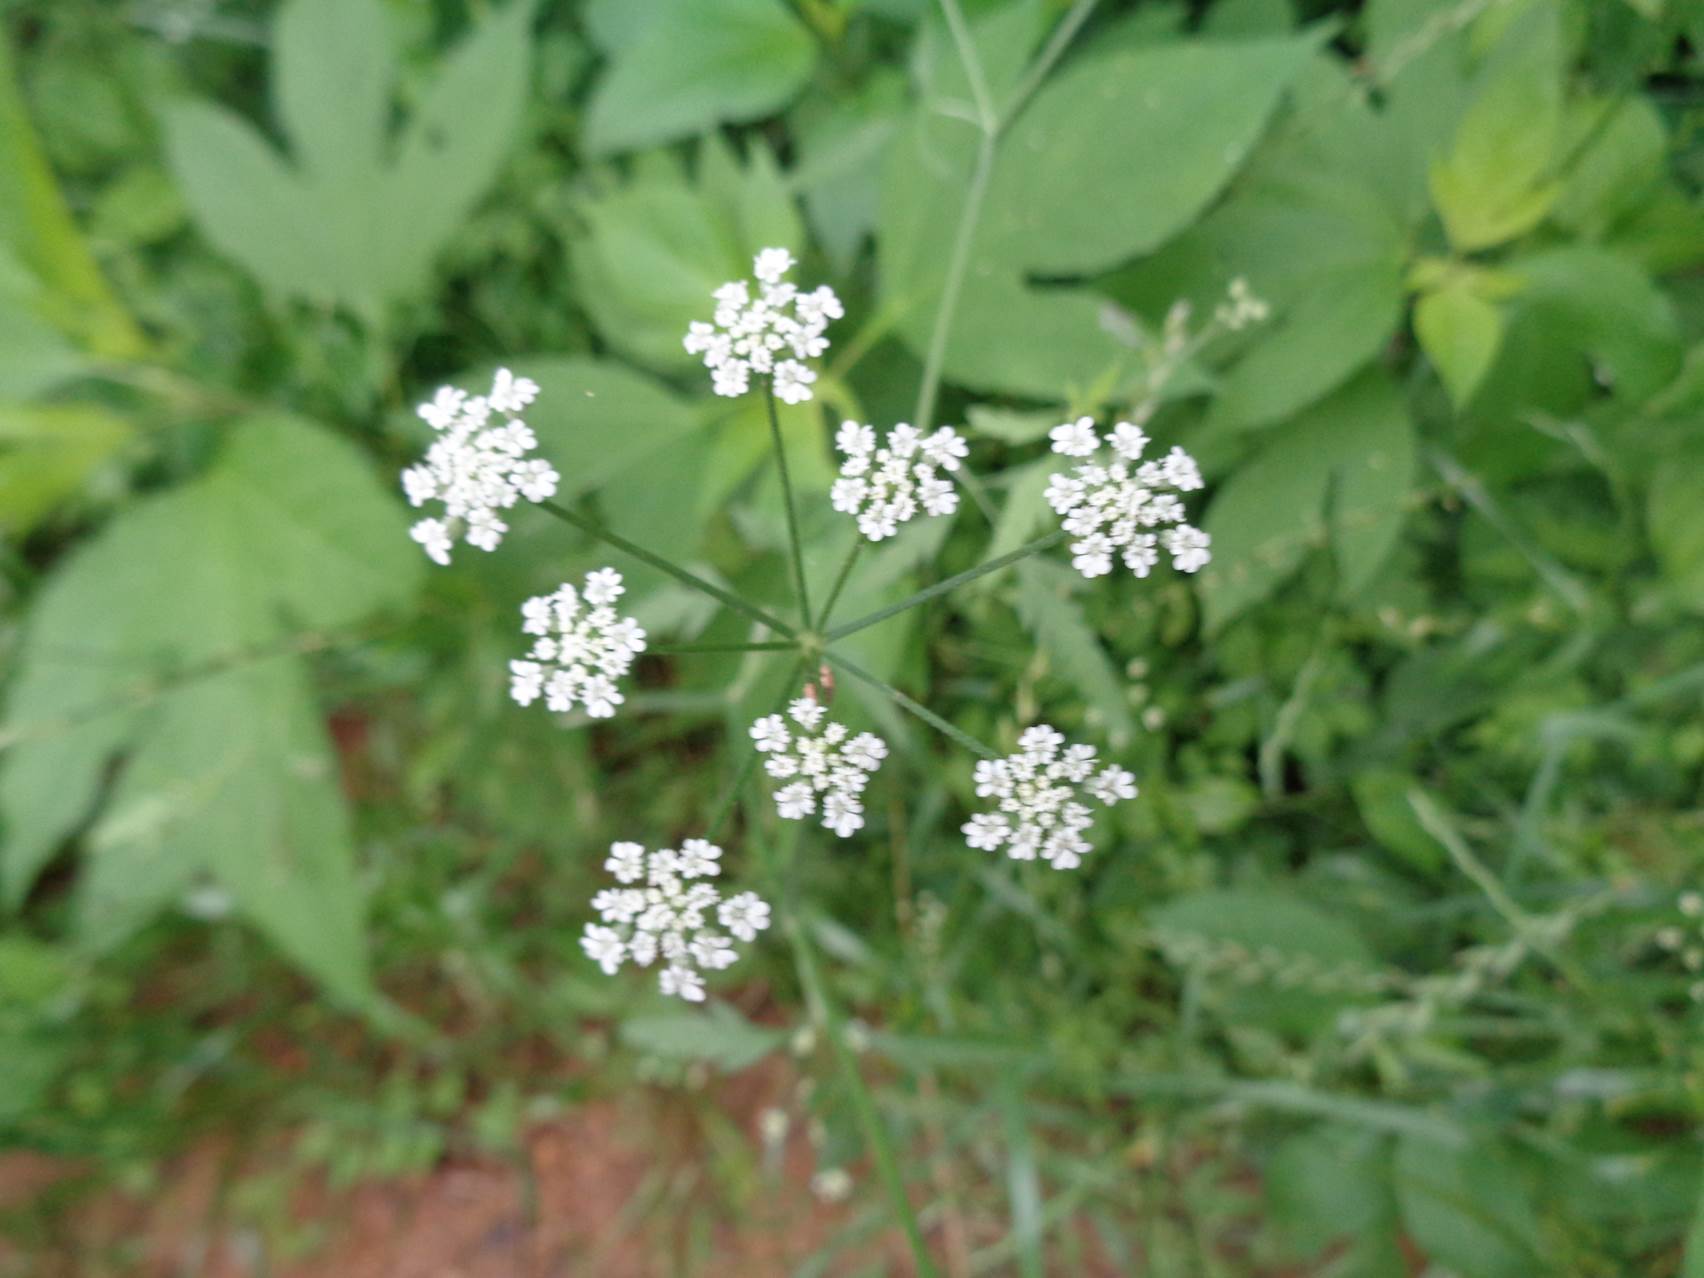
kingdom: Plantae
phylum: Tracheophyta
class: Magnoliopsida
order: Apiales
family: Apiaceae
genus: Torilis
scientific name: Torilis arvensis
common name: Spreading hedge-parsley
